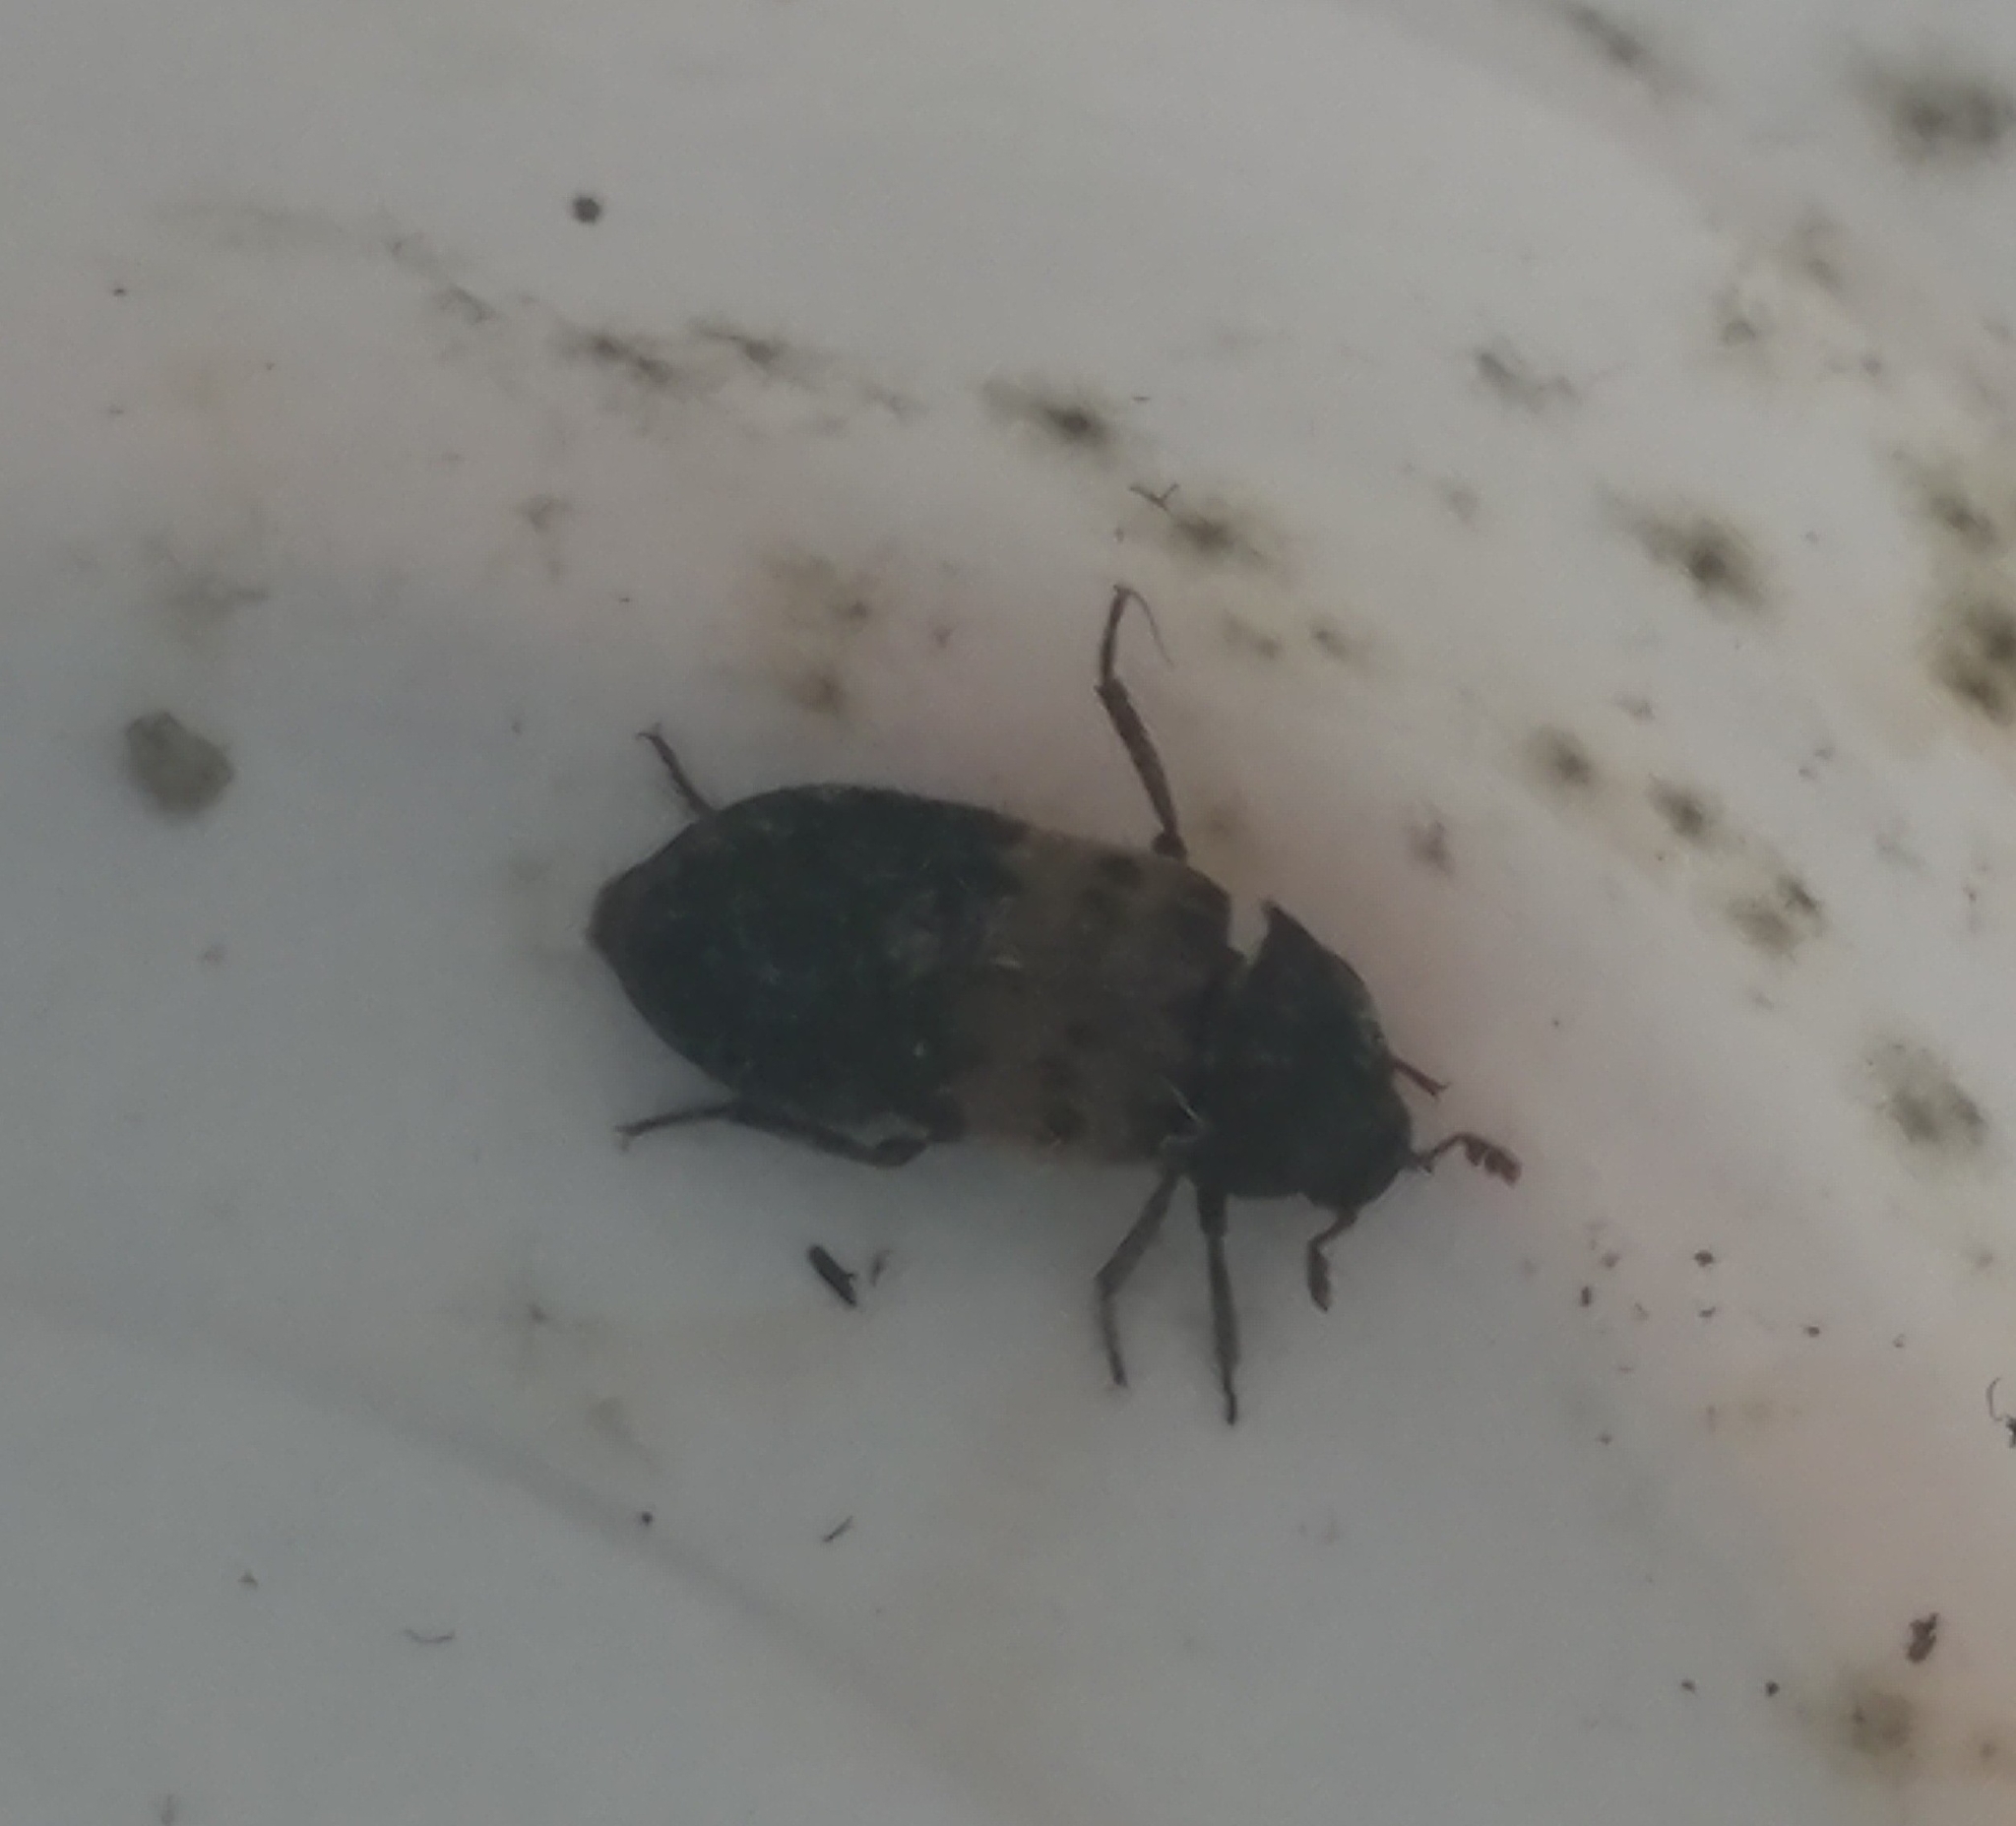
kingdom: Animalia
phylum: Arthropoda
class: Insecta
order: Coleoptera
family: Dermestidae
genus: Dermestes
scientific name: Dermestes lardarius
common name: Larder beetle
